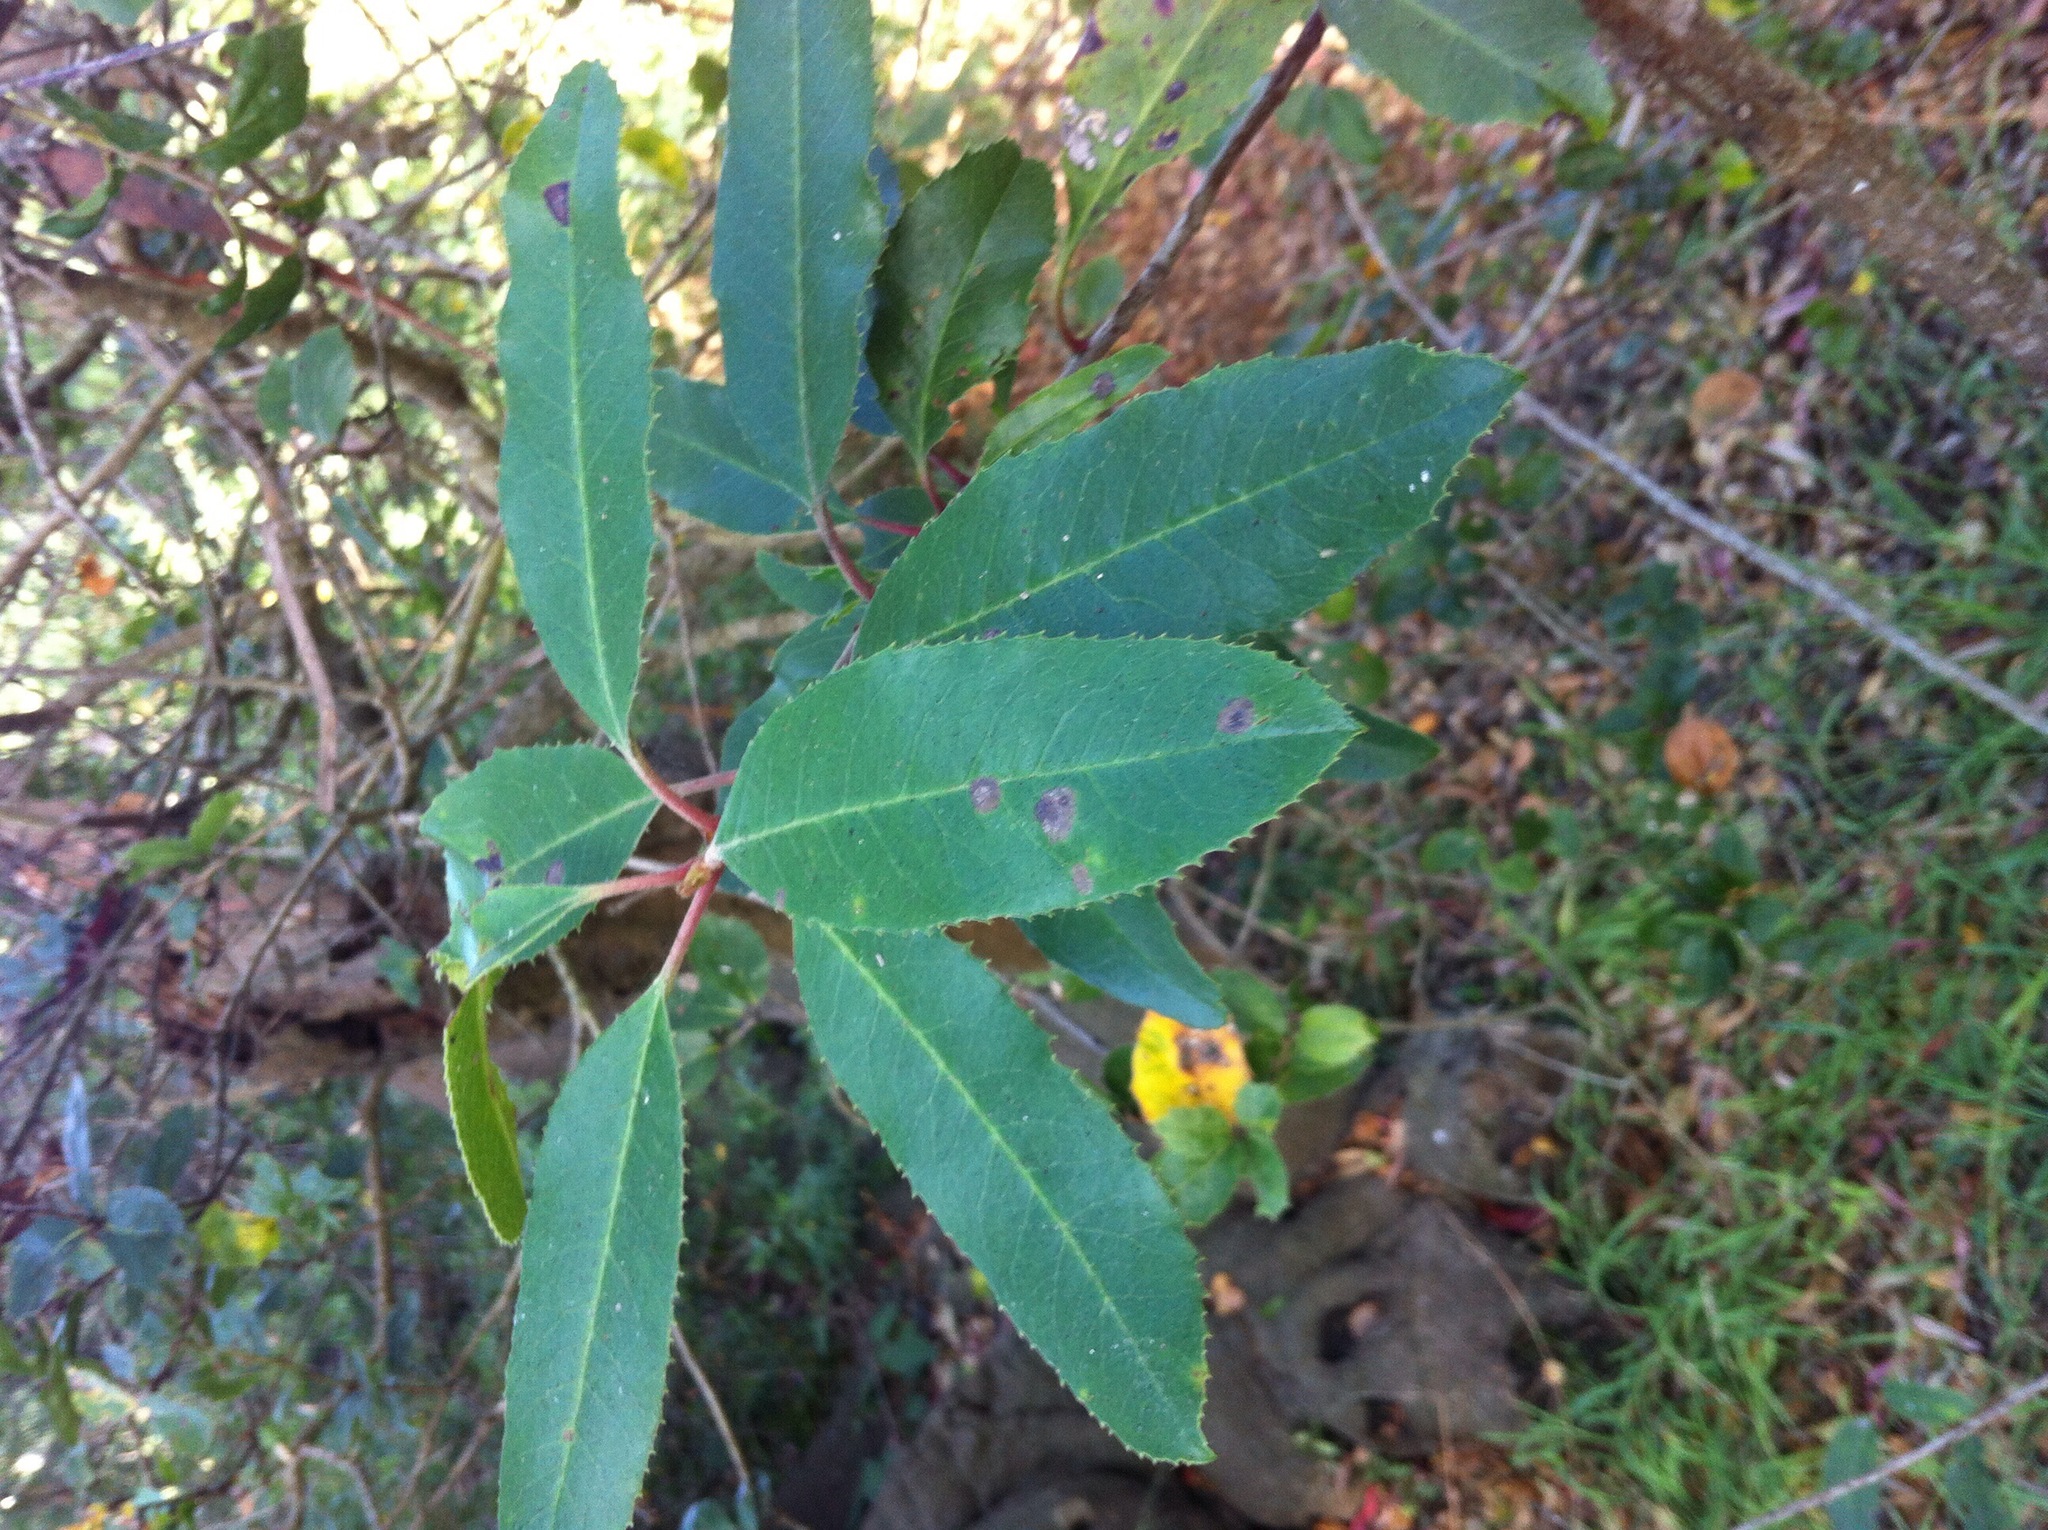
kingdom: Plantae
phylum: Tracheophyta
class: Magnoliopsida
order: Rosales
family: Rosaceae
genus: Heteromeles
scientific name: Heteromeles arbutifolia
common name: California-holly
